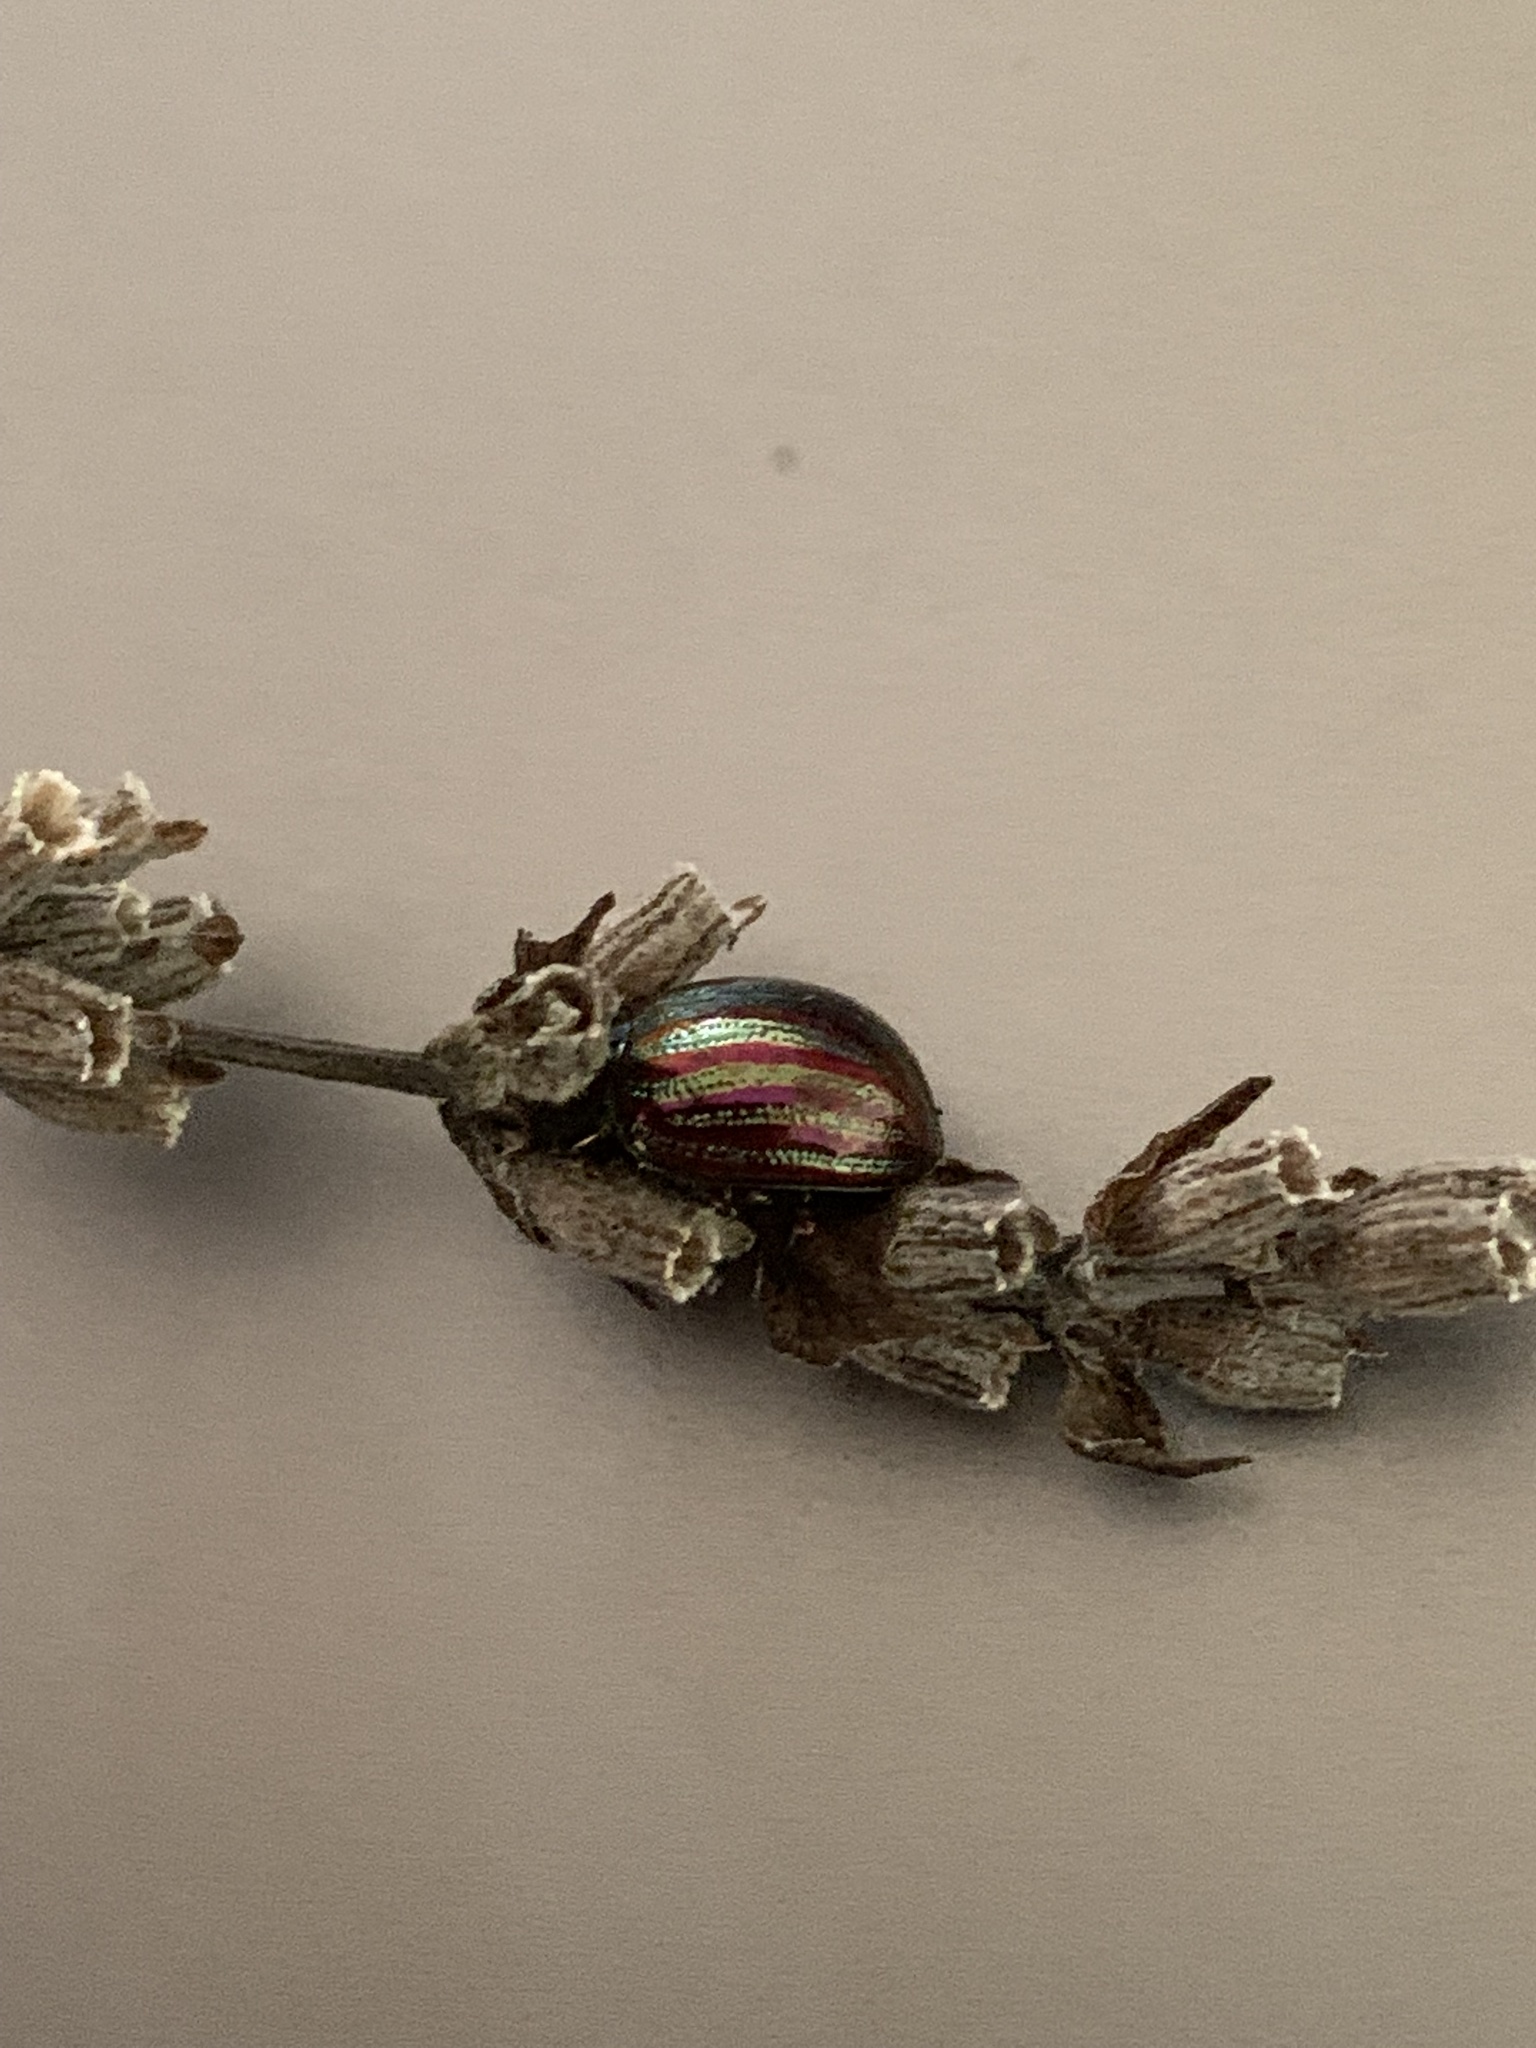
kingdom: Animalia
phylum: Arthropoda
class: Insecta
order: Coleoptera
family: Chrysomelidae
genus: Chrysolina
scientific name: Chrysolina americana
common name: Rosemary beetle
